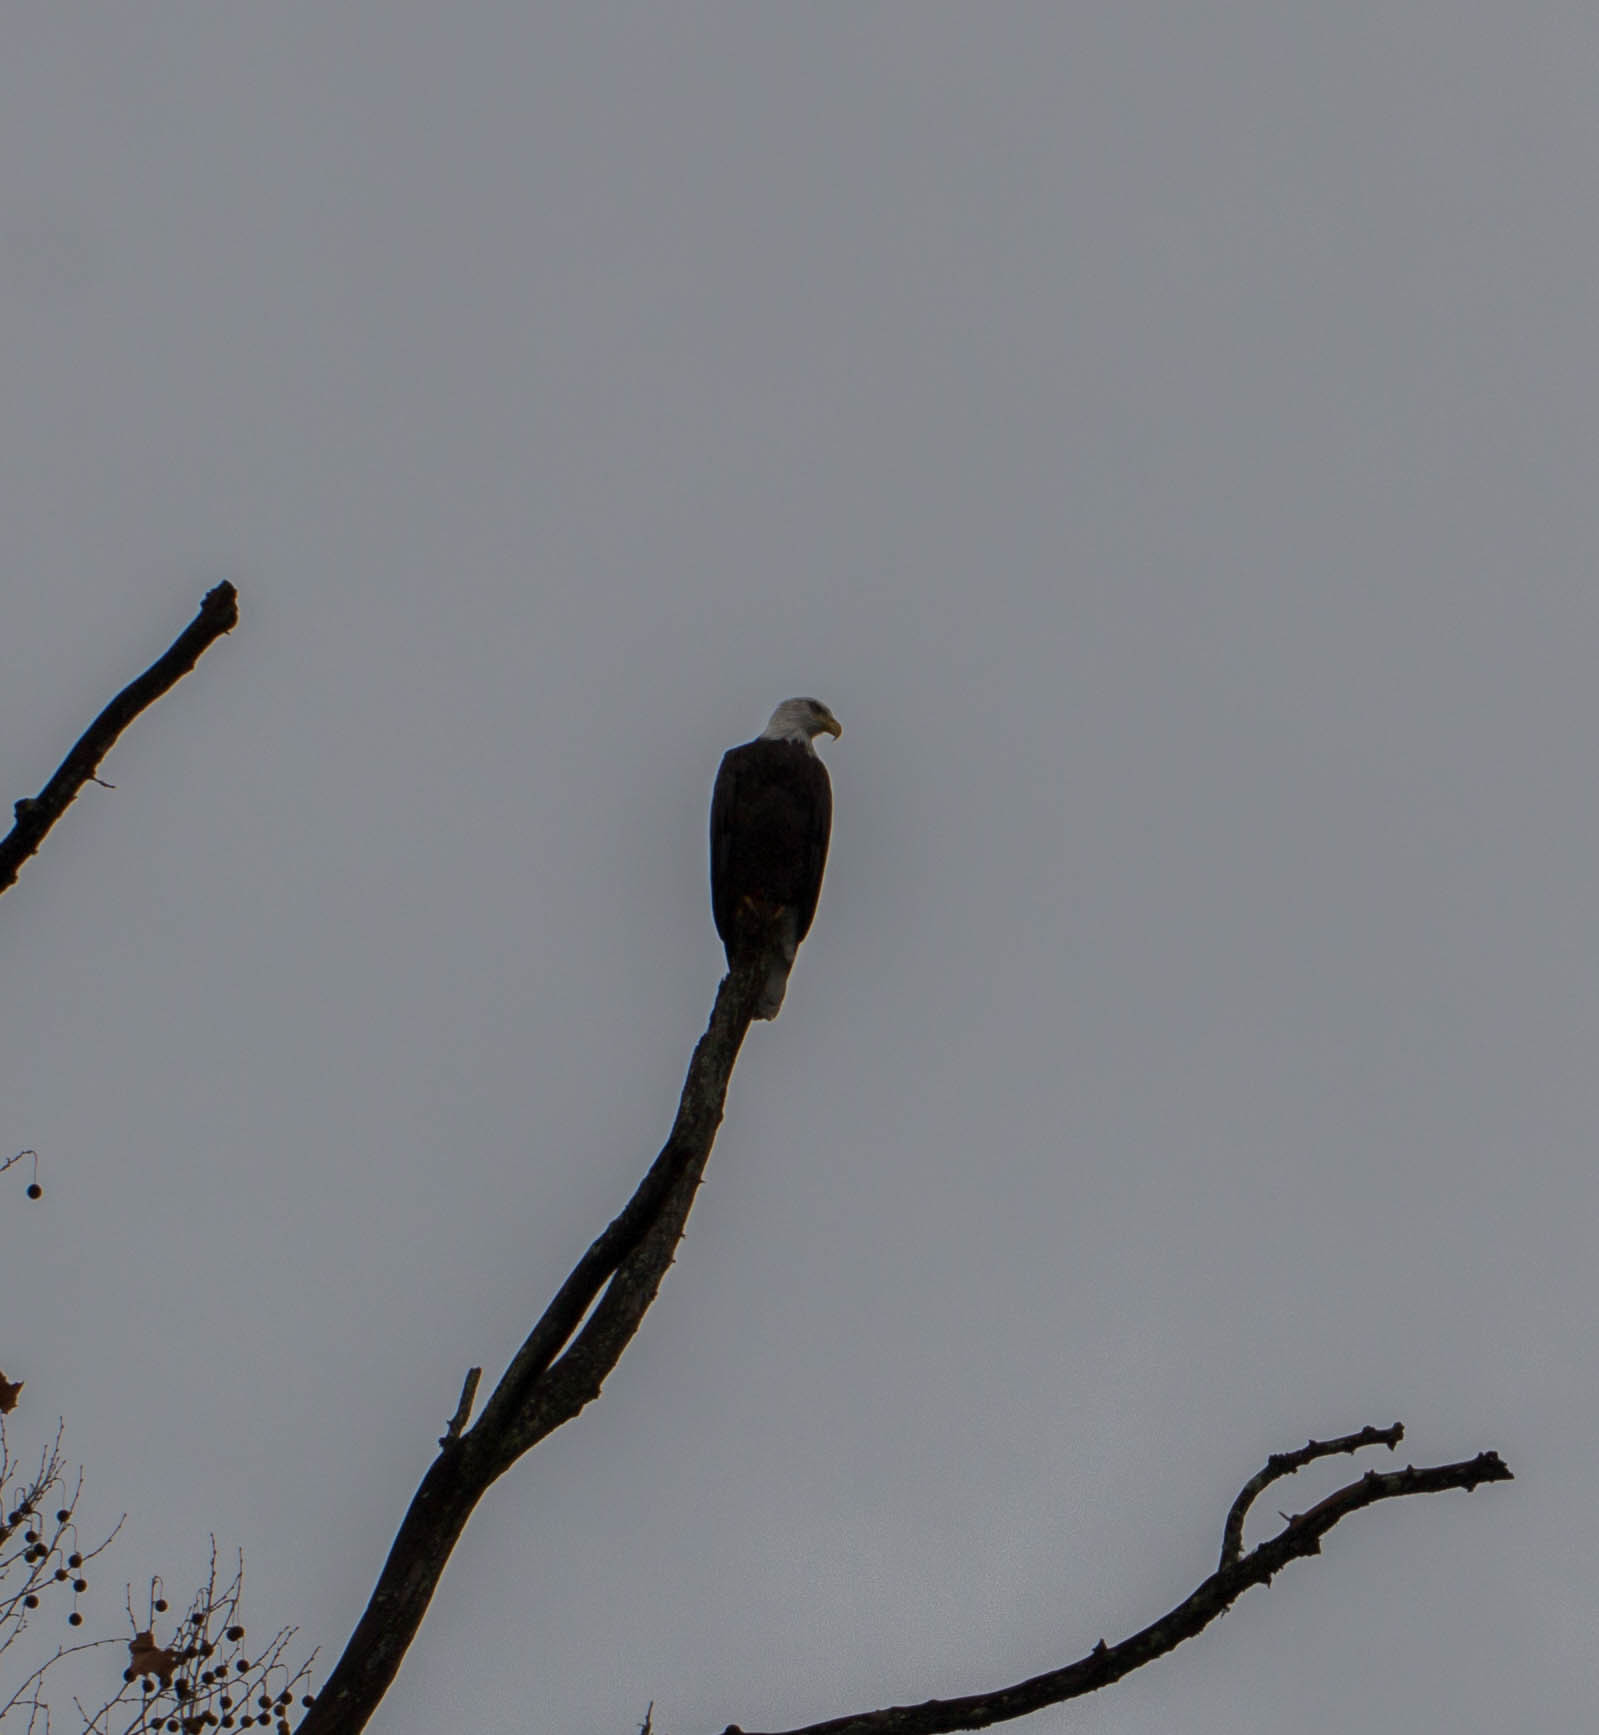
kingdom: Animalia
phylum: Chordata
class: Aves
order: Accipitriformes
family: Accipitridae
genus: Haliaeetus
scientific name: Haliaeetus leucocephalus
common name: Bald eagle
